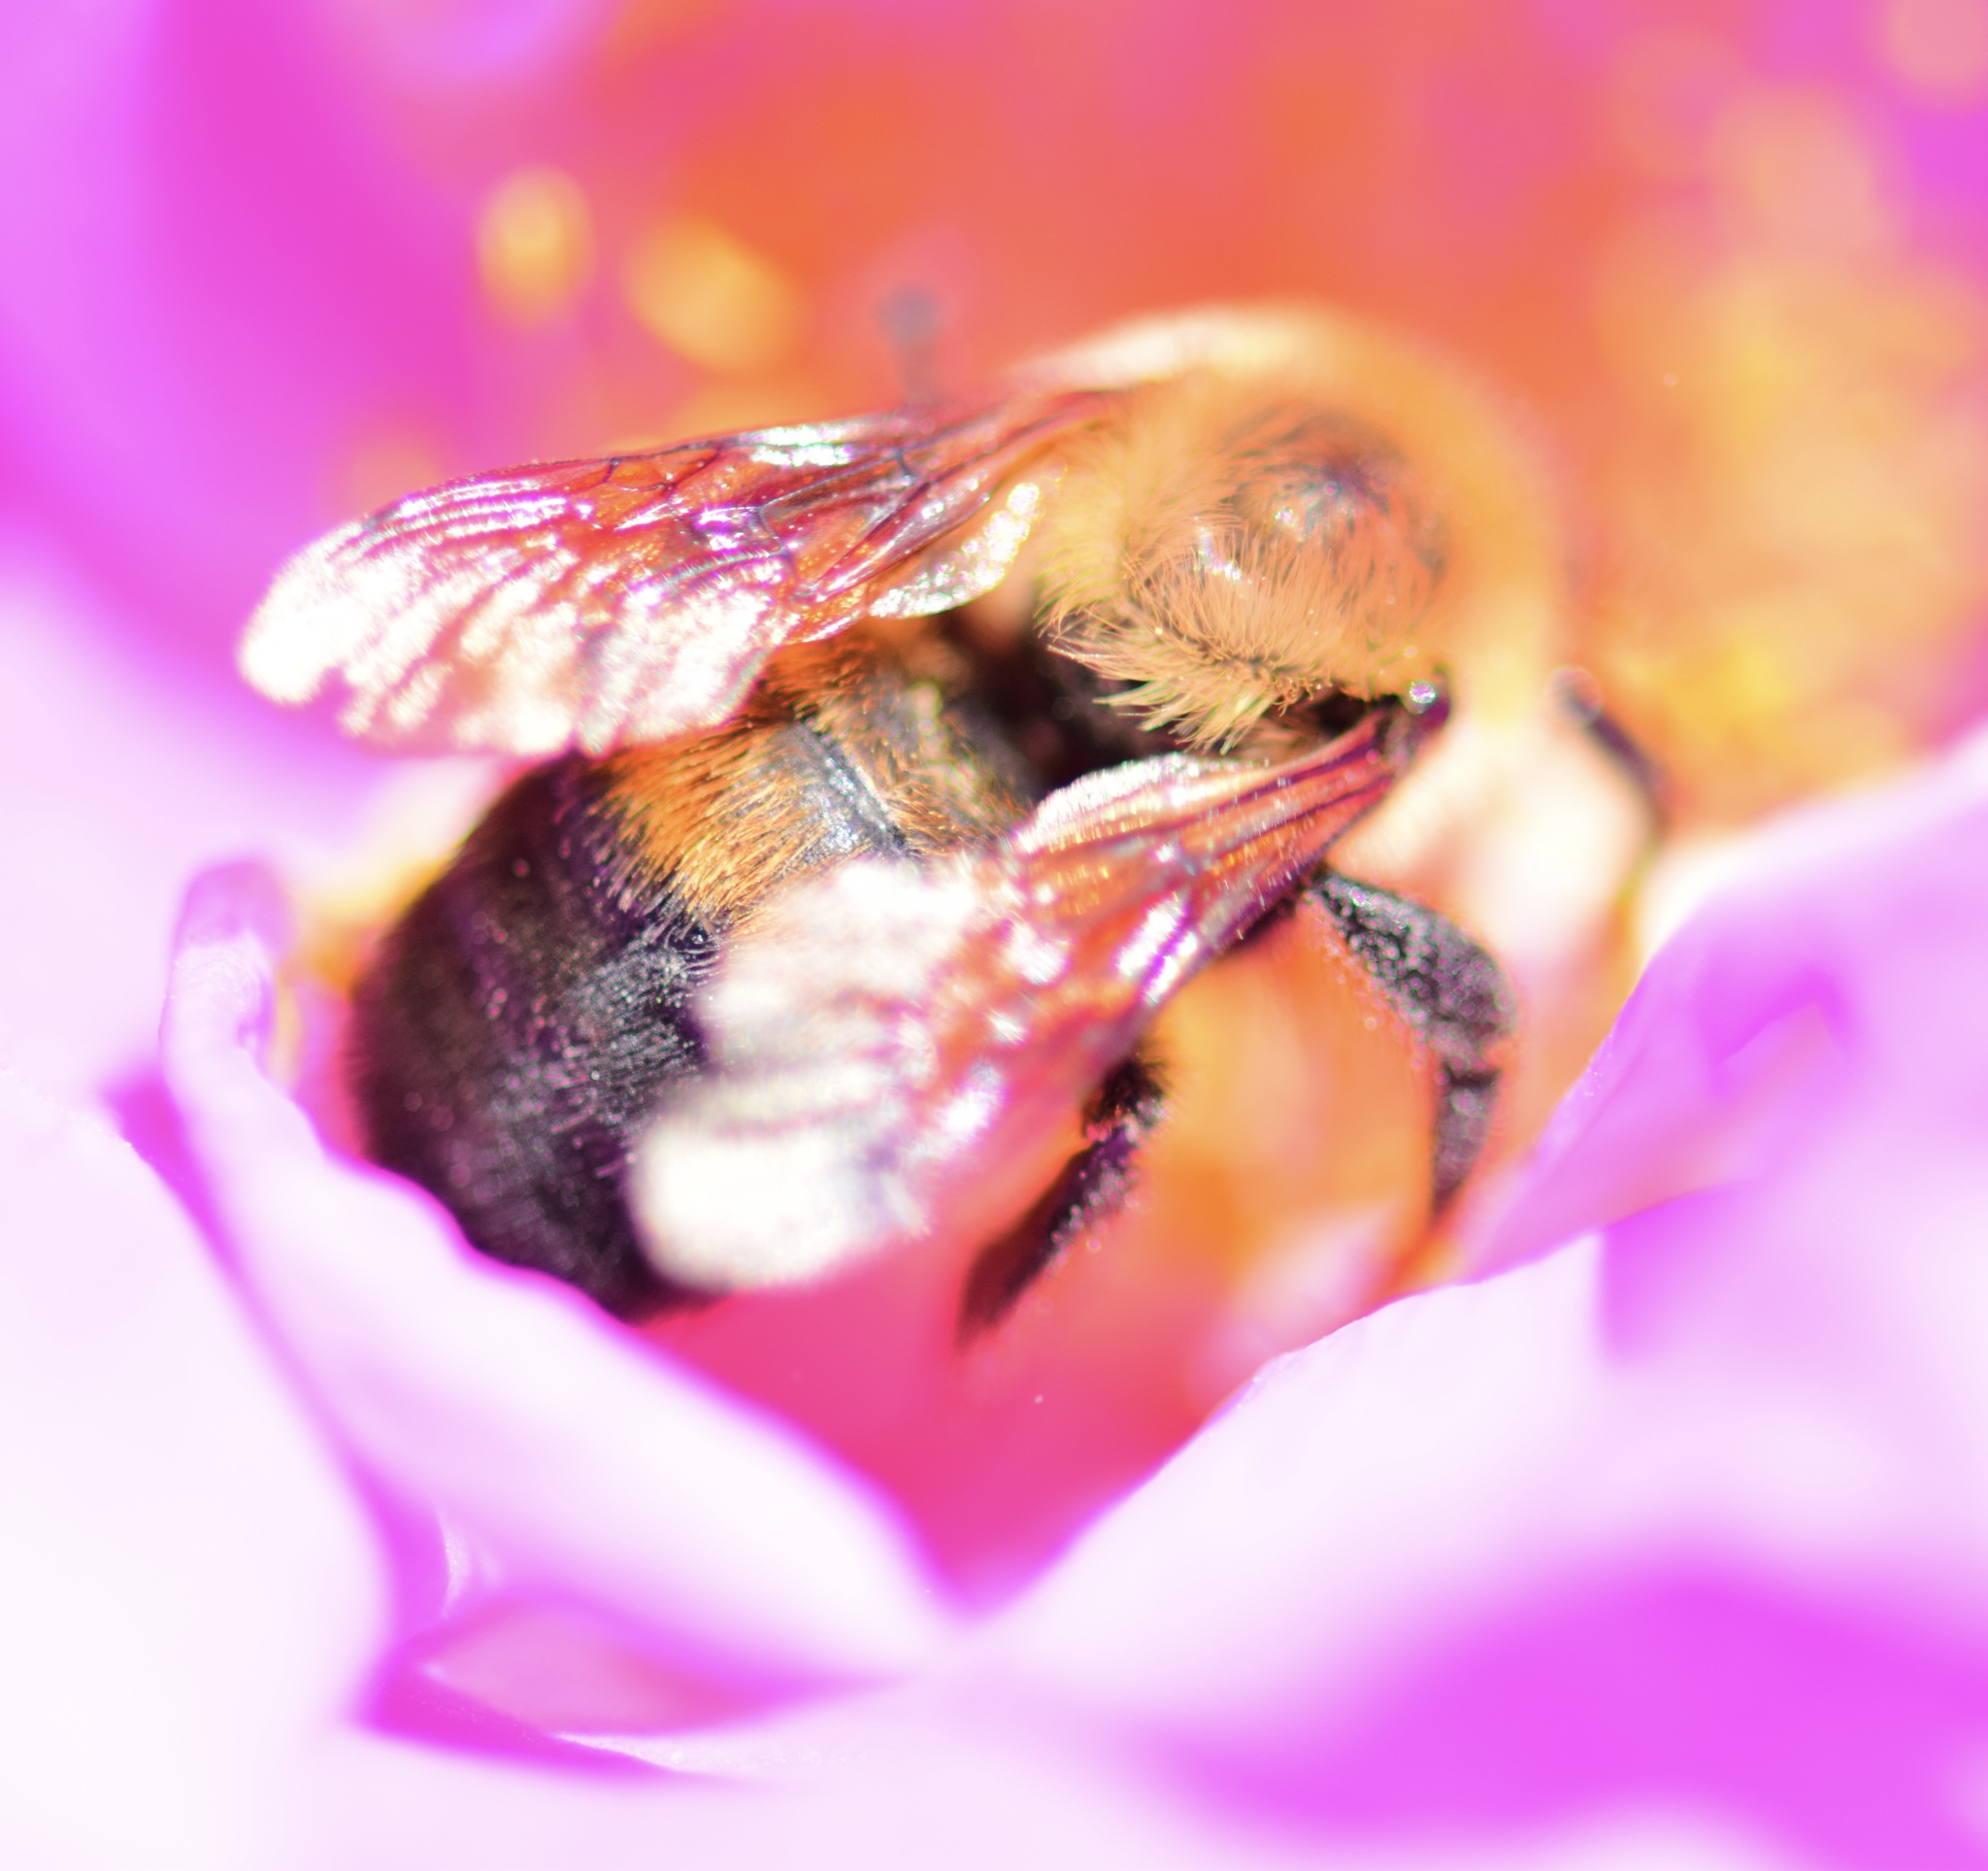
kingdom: Animalia
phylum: Arthropoda
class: Insecta
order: Hymenoptera
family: Apidae
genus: Bombus
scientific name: Bombus griseocollis
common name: Brown-belted bumble bee
